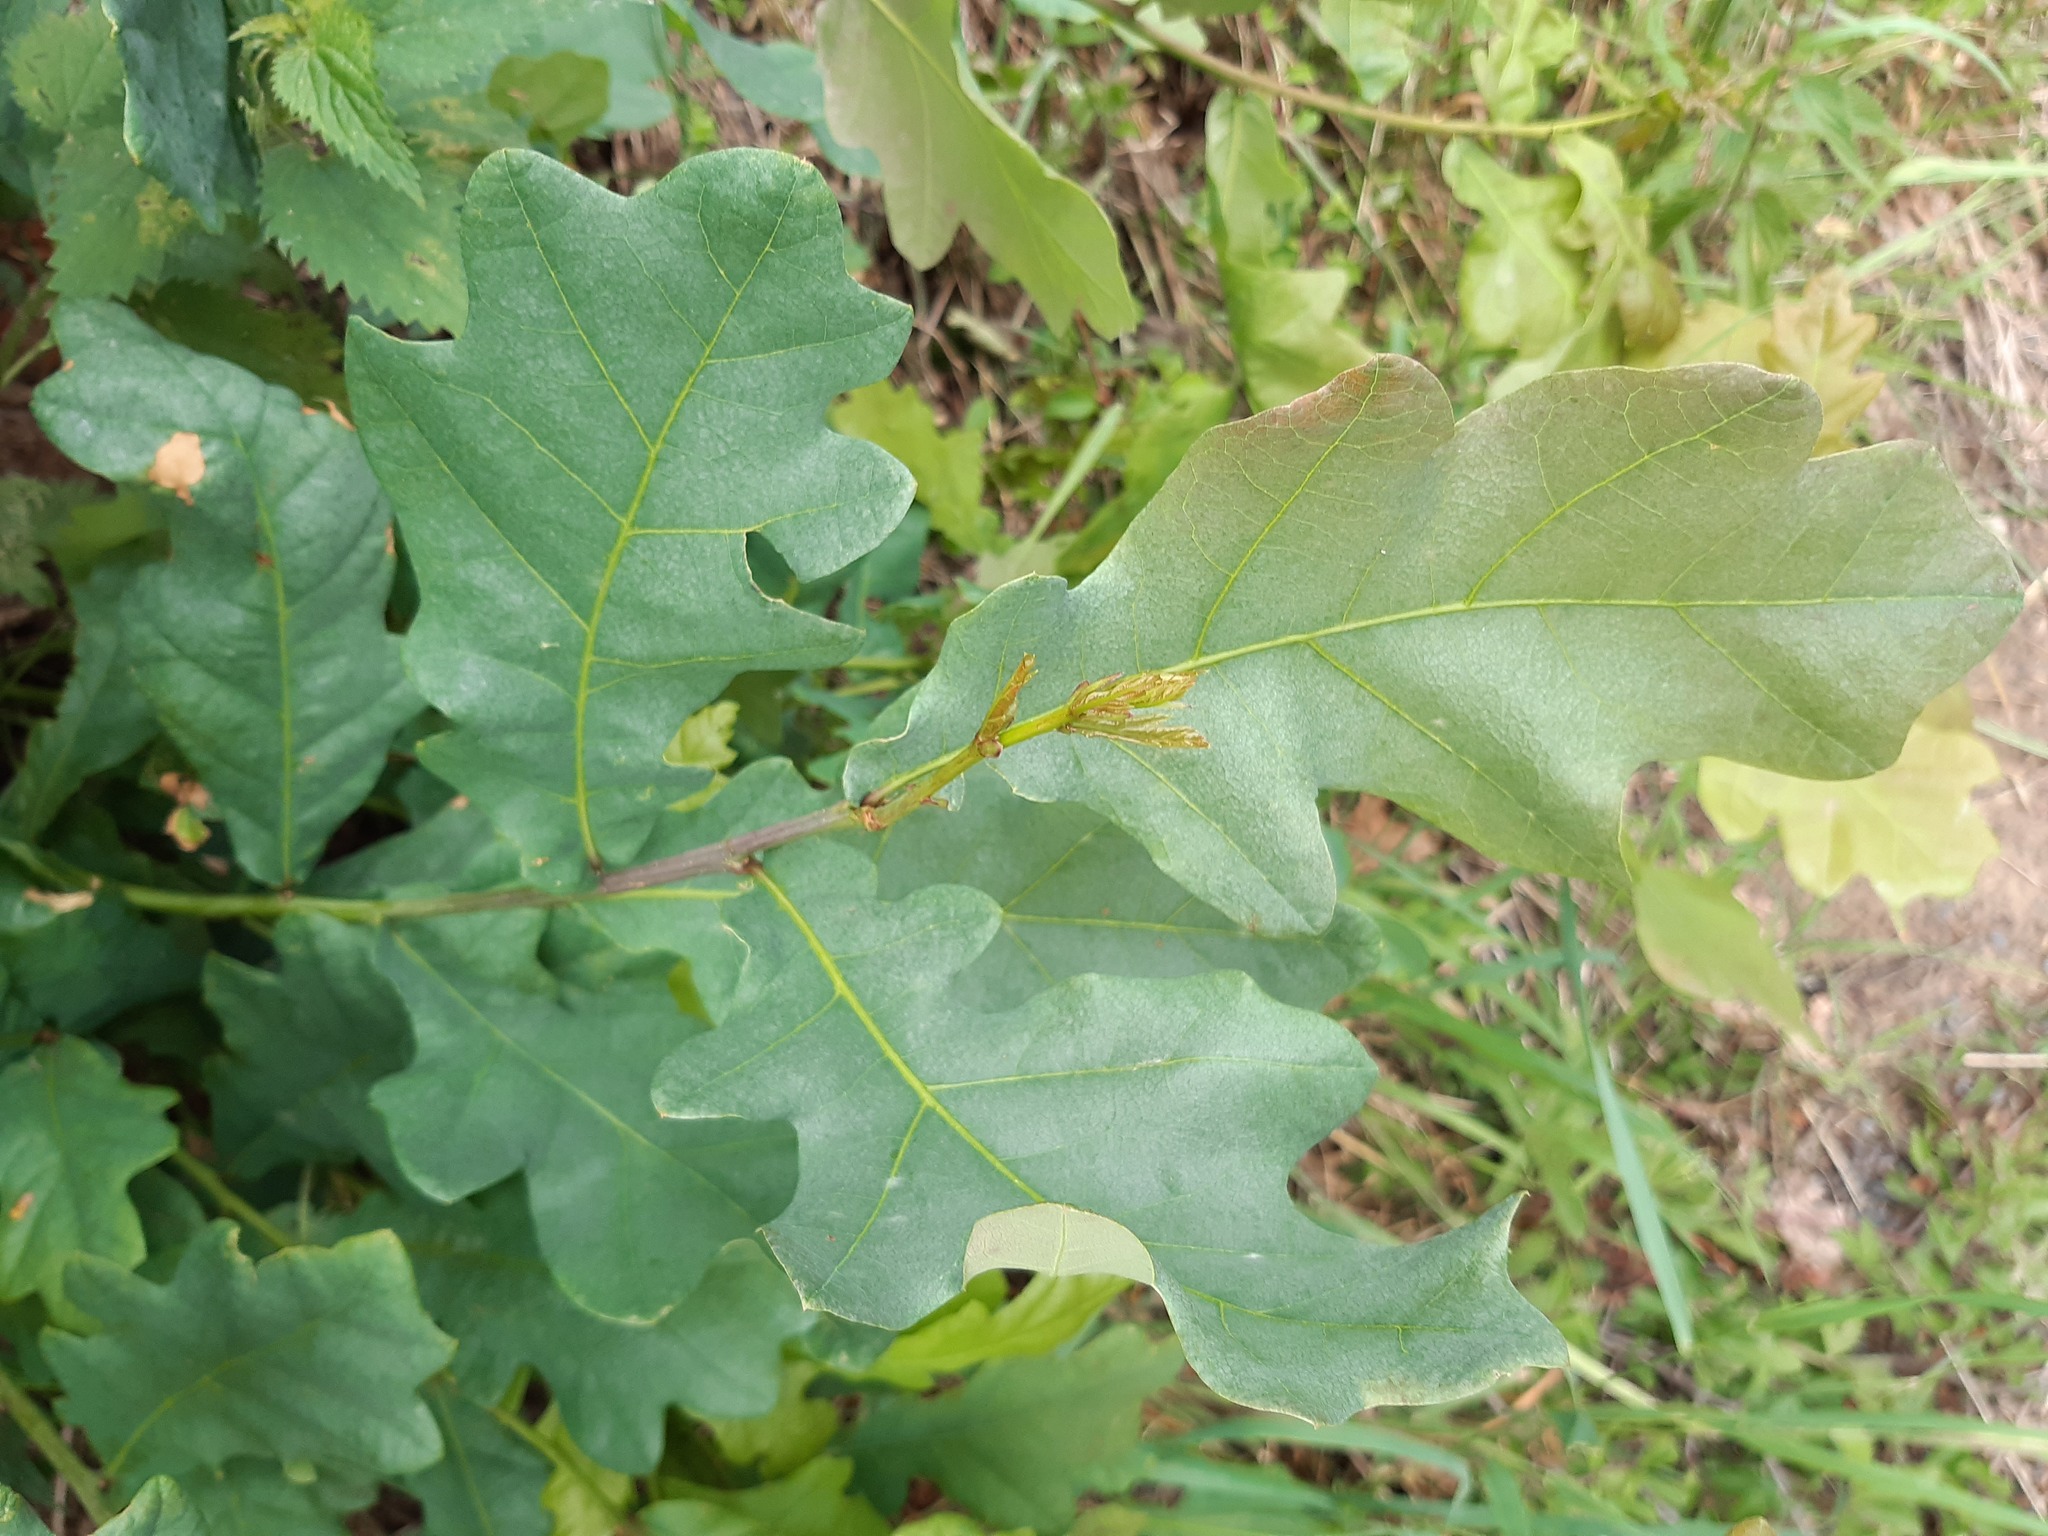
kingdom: Plantae
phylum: Tracheophyta
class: Magnoliopsida
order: Fagales
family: Fagaceae
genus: Quercus
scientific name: Quercus robur
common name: Pedunculate oak
